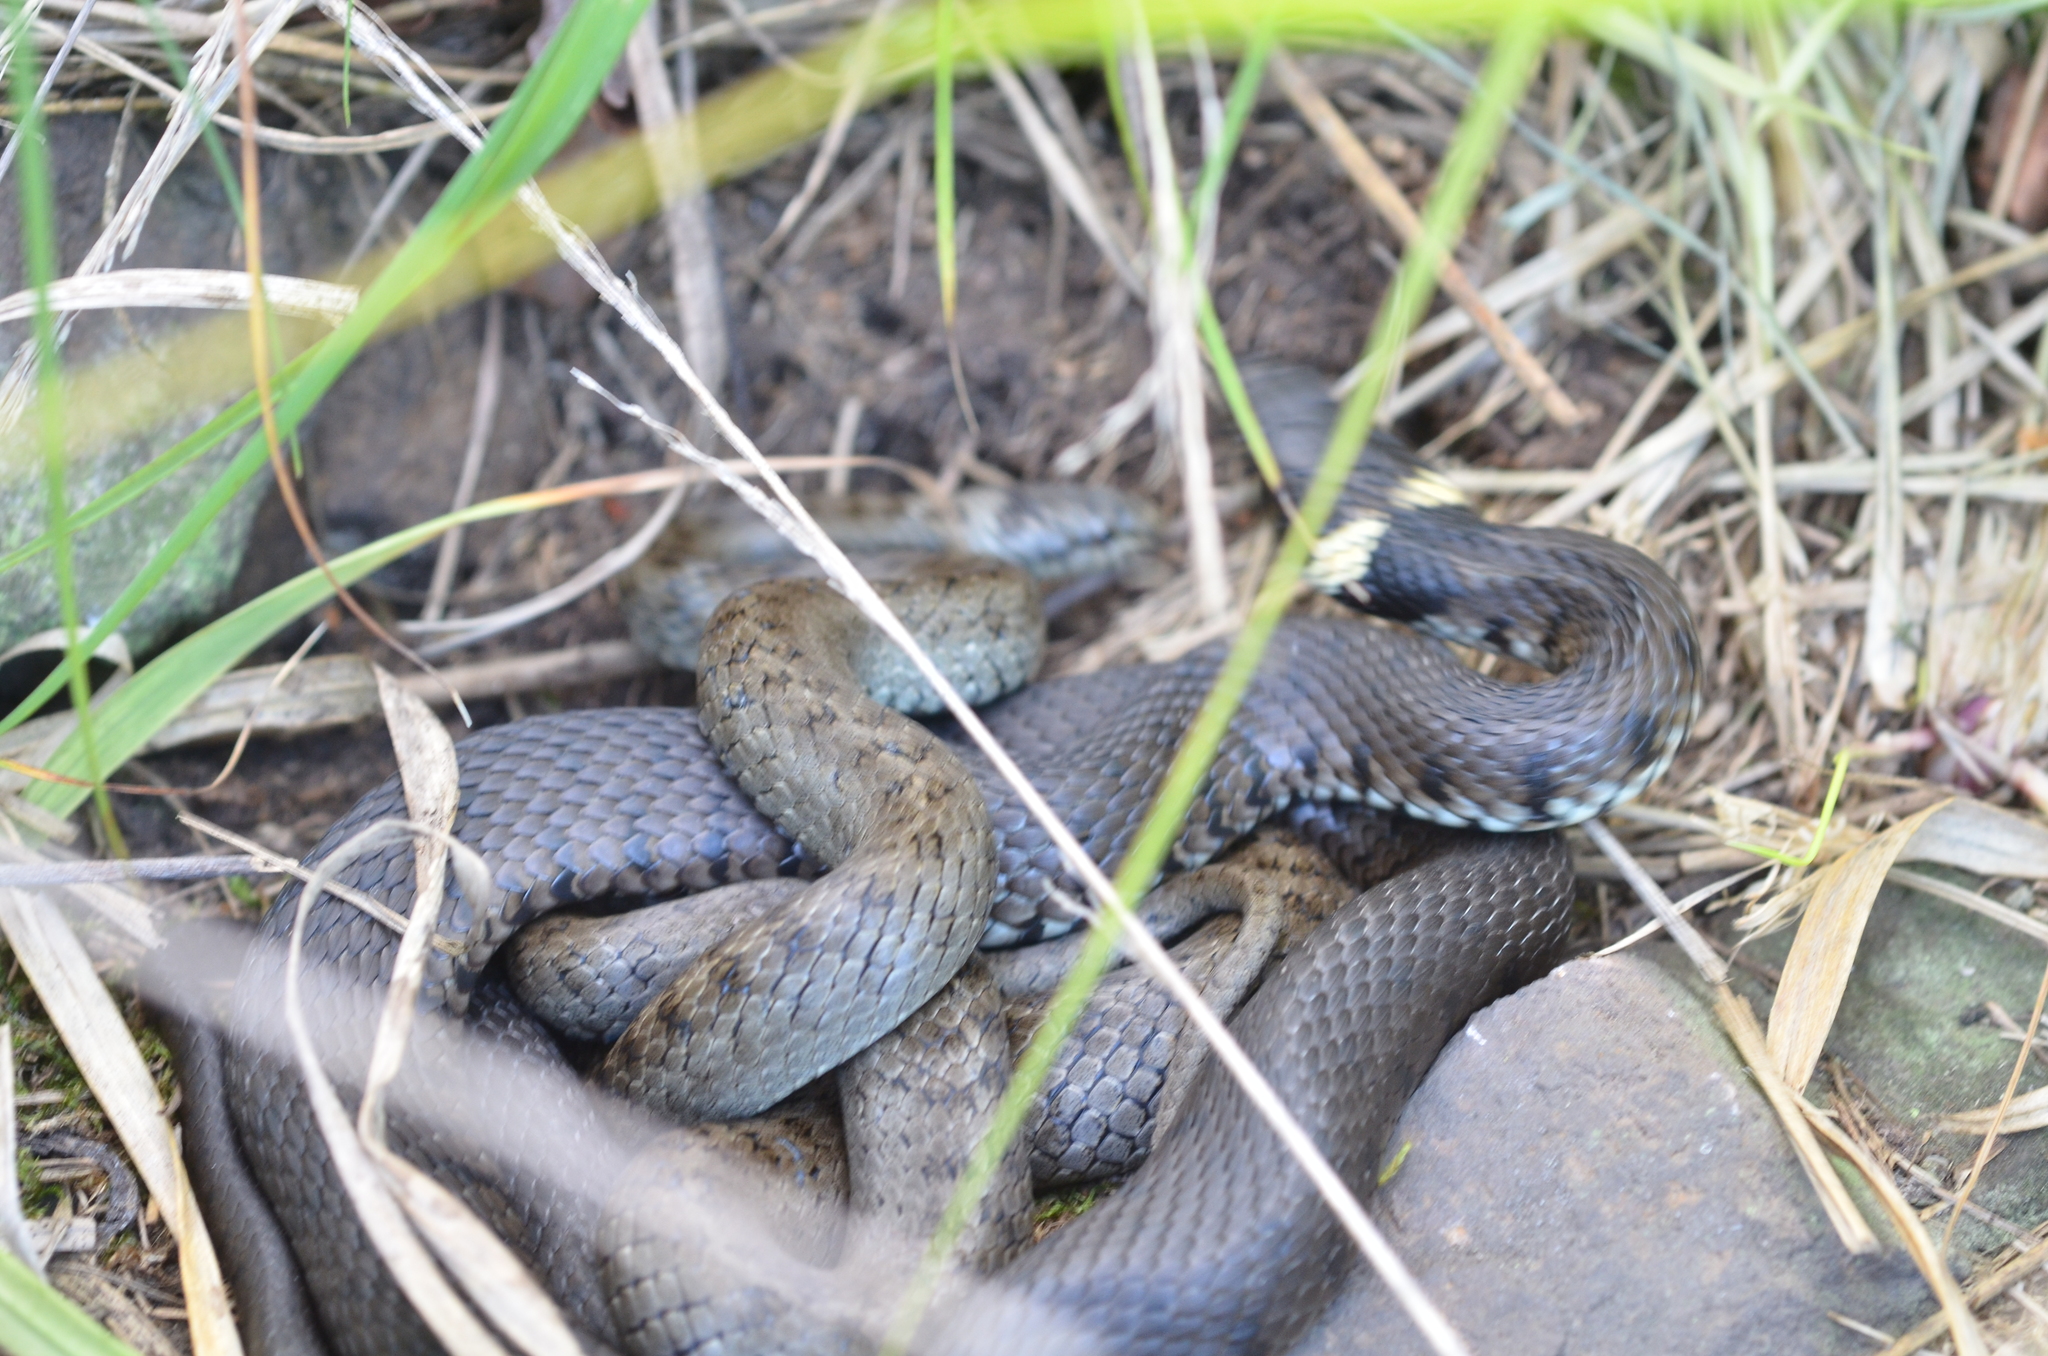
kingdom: Animalia
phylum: Chordata
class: Squamata
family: Colubridae
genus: Natrix
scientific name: Natrix helvetica
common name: Banded grass snake
